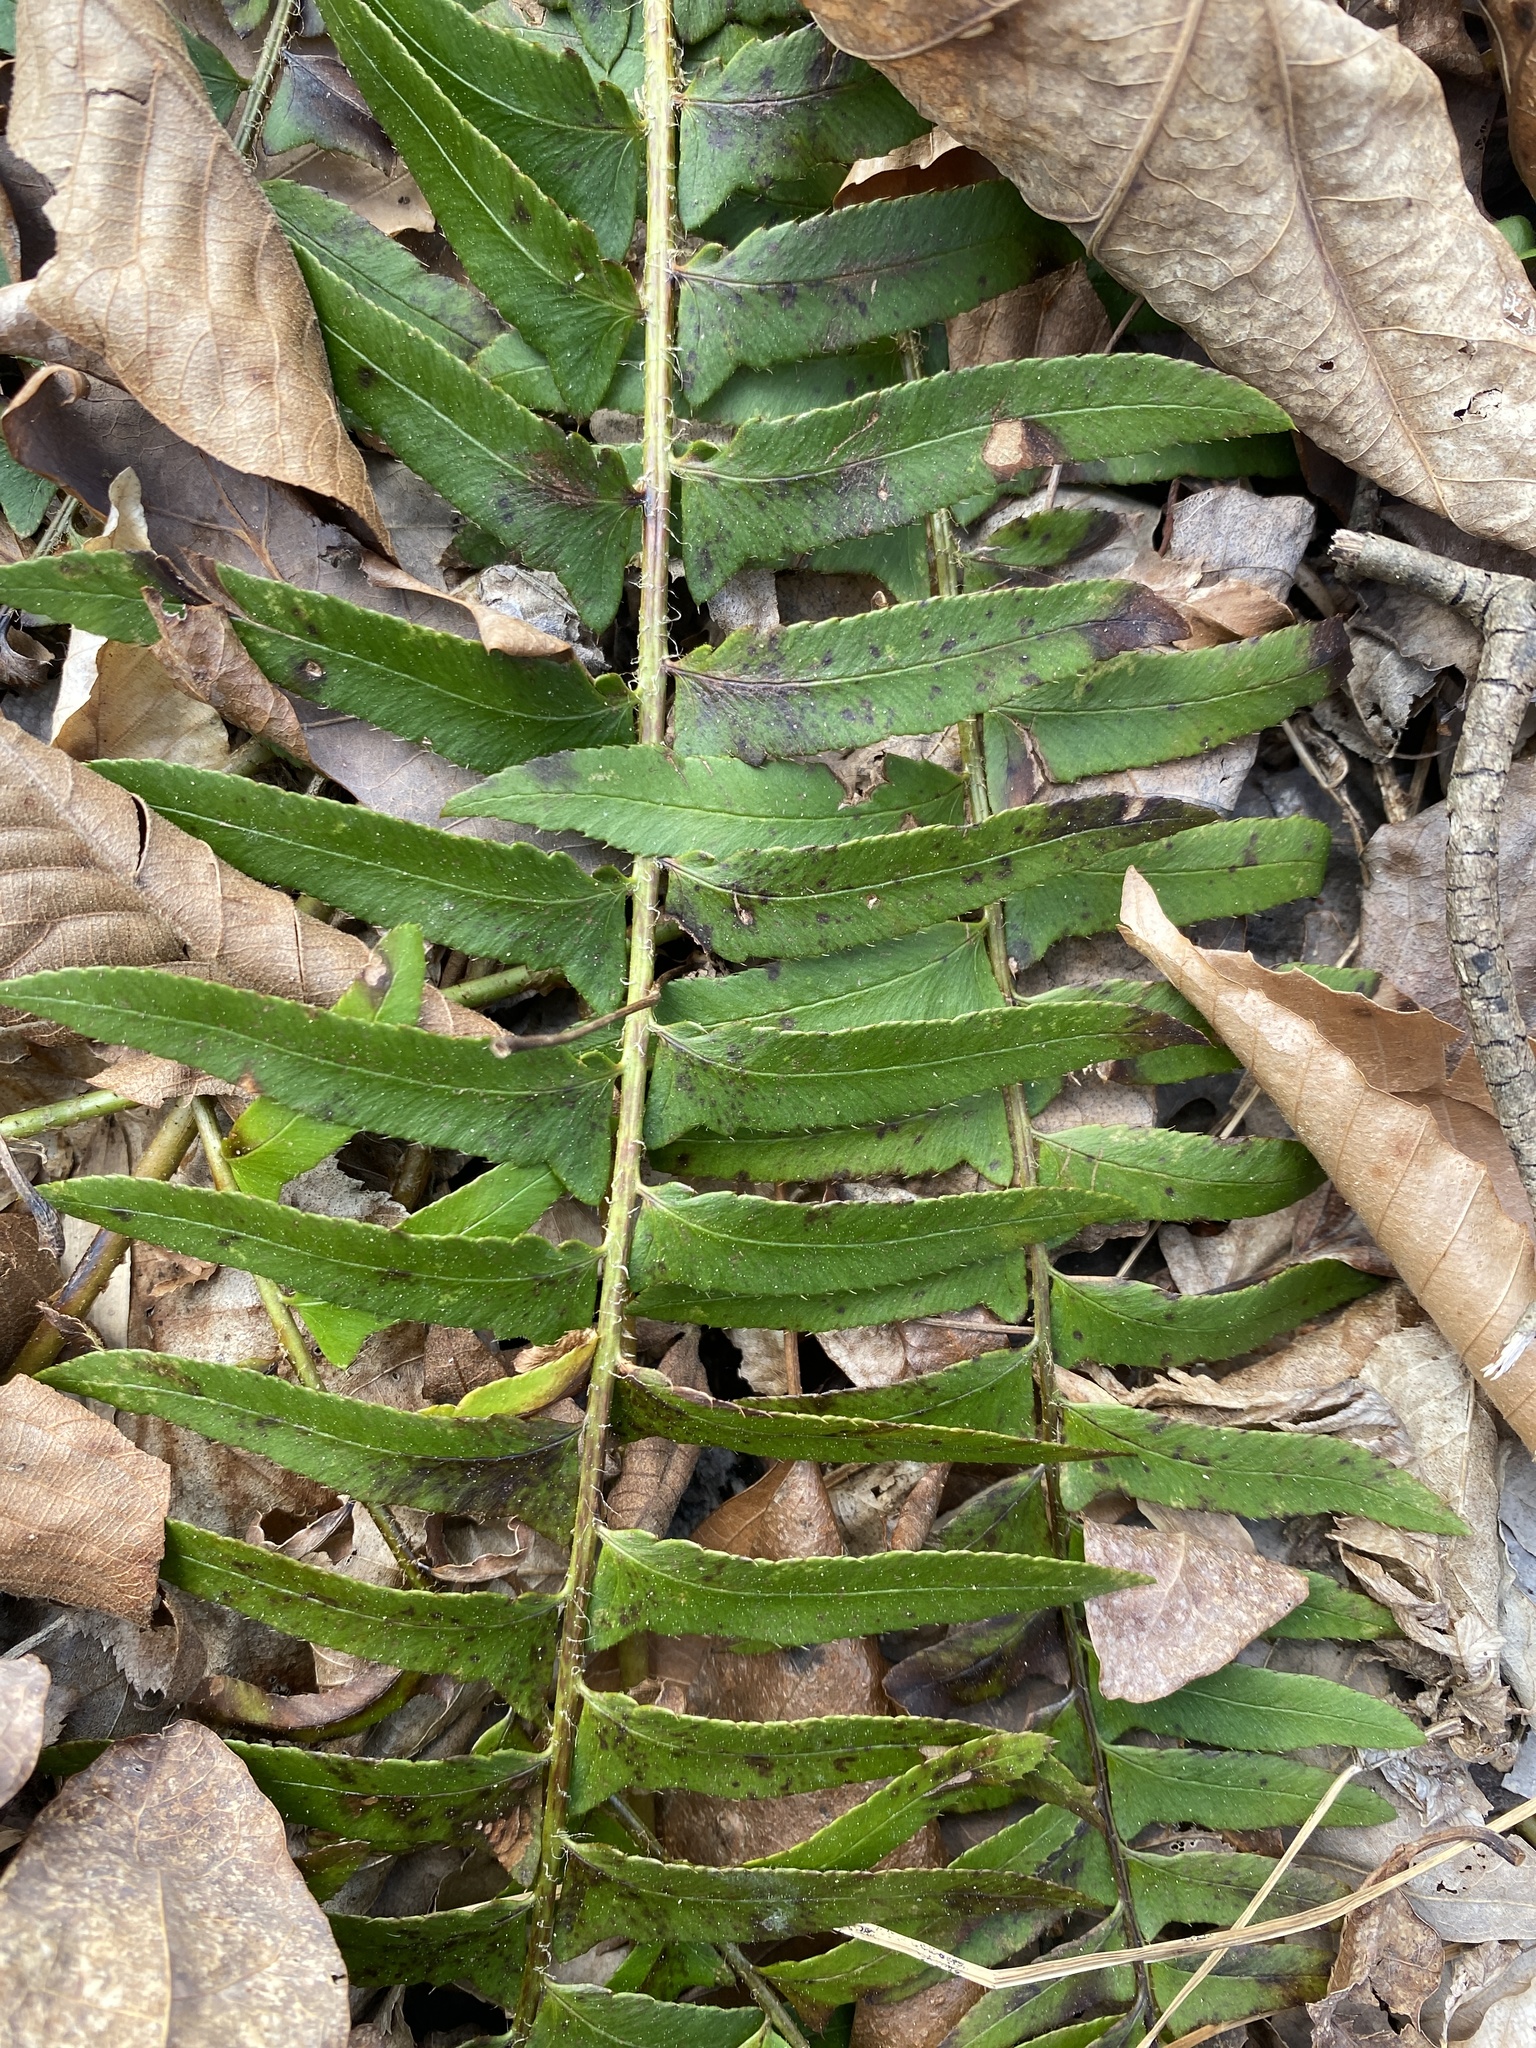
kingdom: Plantae
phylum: Tracheophyta
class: Polypodiopsida
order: Polypodiales
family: Dryopteridaceae
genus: Polystichum
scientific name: Polystichum acrostichoides
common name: Christmas fern
